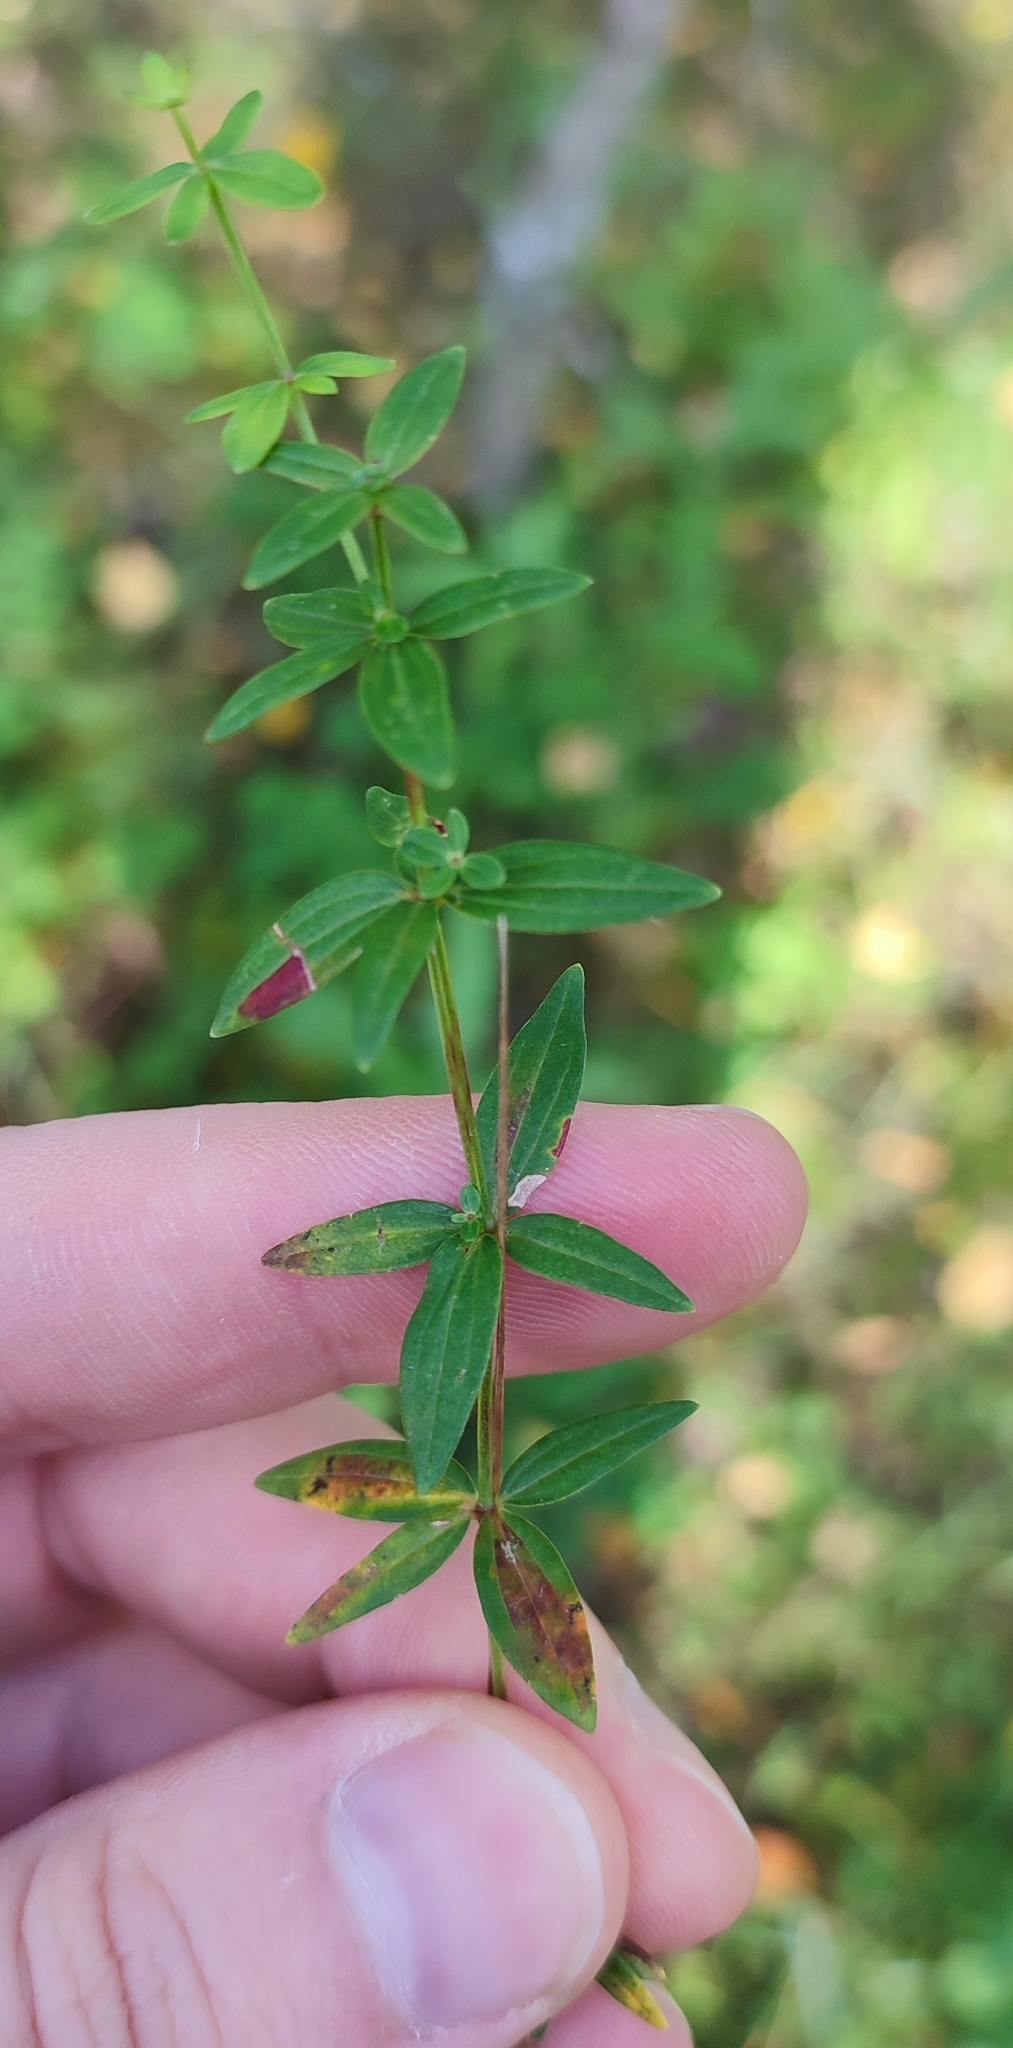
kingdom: Plantae
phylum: Tracheophyta
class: Magnoliopsida
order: Gentianales
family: Rubiaceae
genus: Galium
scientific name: Galium boreale
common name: Northern bedstraw
